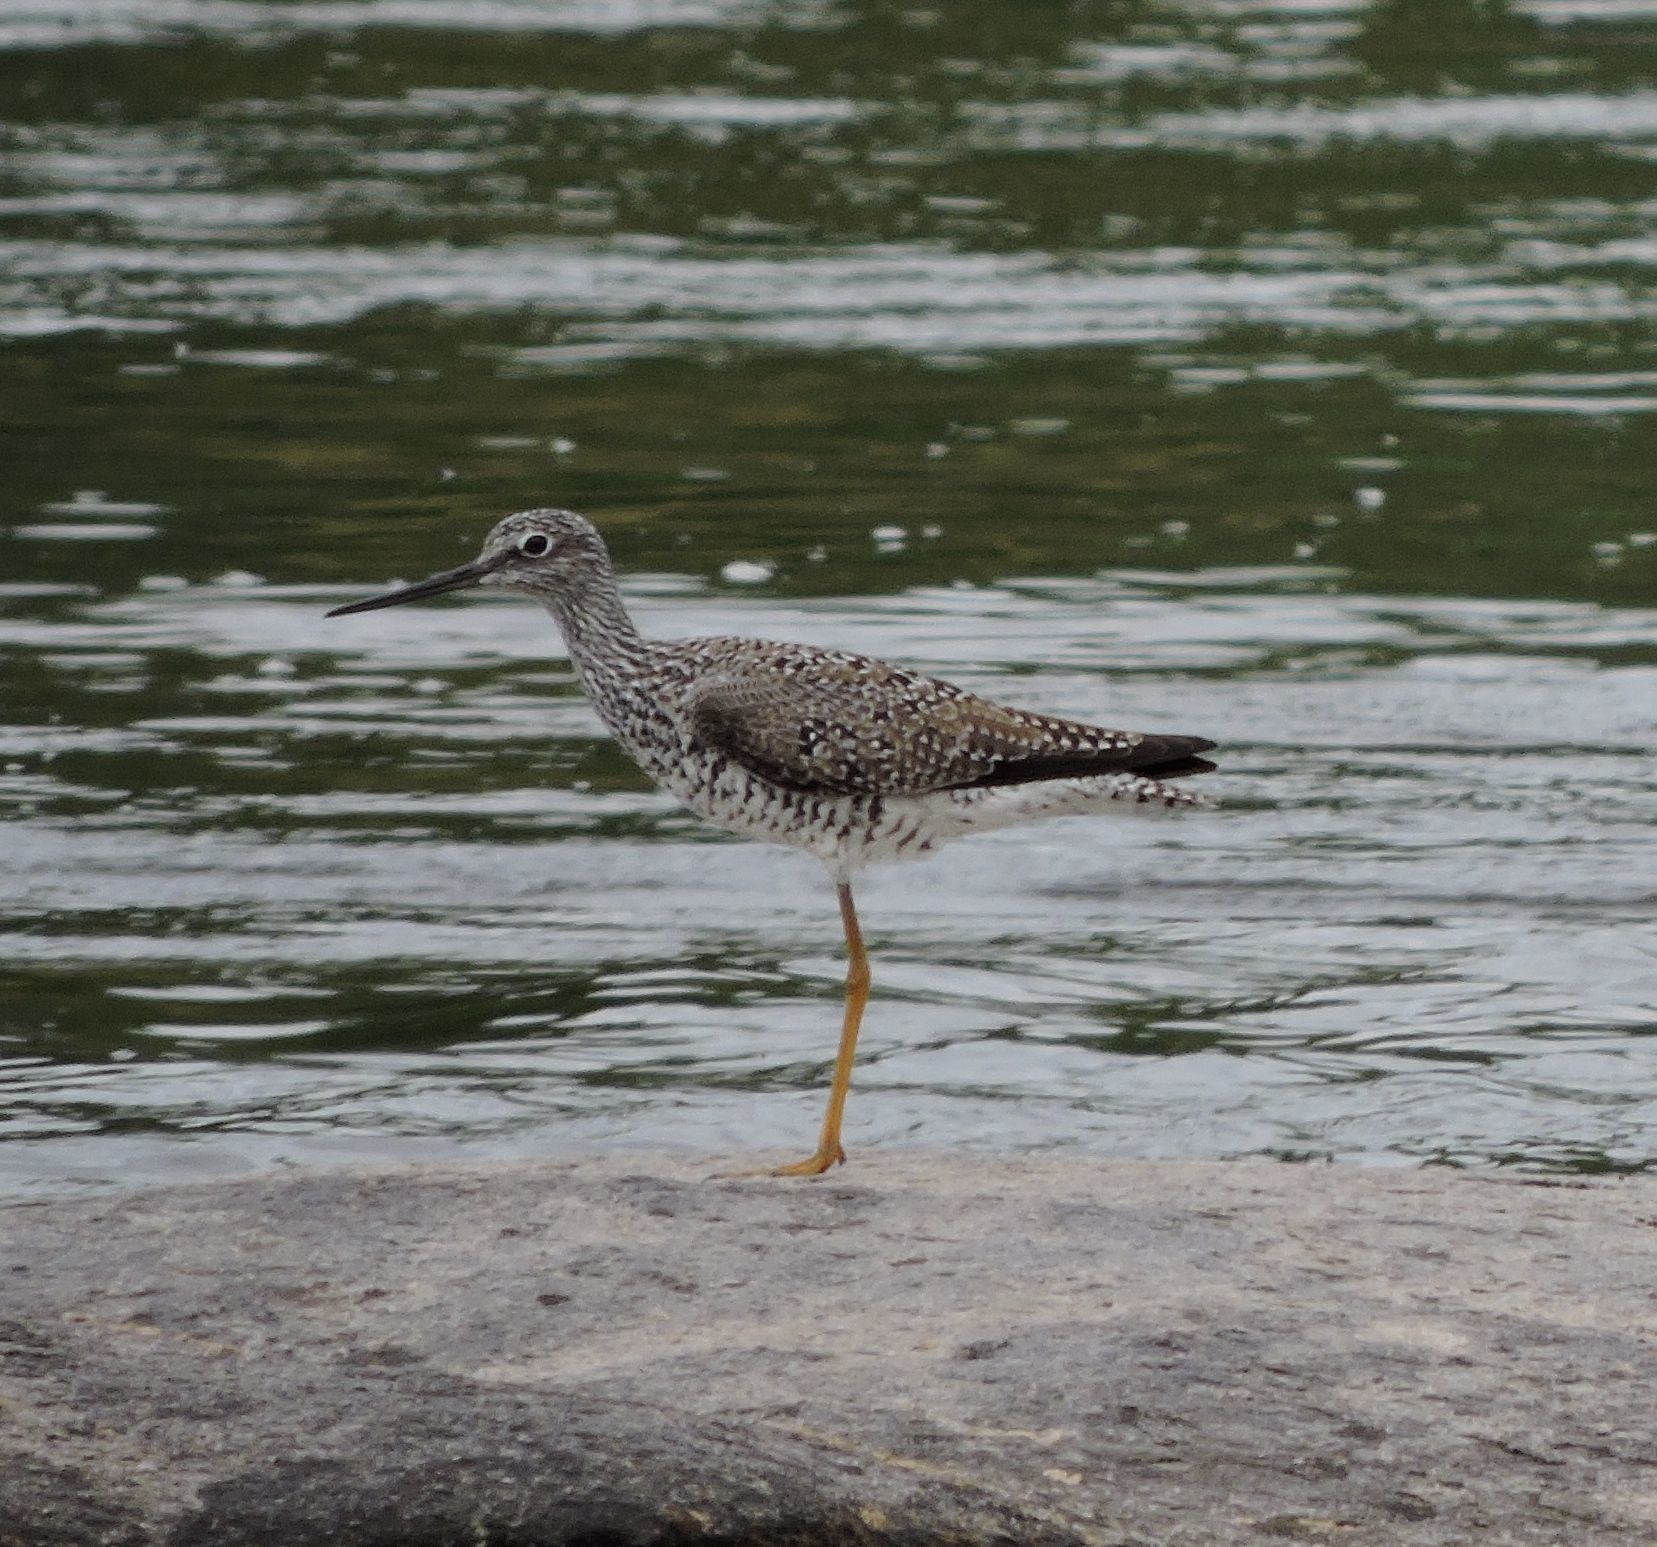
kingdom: Animalia
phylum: Chordata
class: Aves
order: Charadriiformes
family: Scolopacidae
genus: Tringa
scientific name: Tringa melanoleuca
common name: Greater yellowlegs
